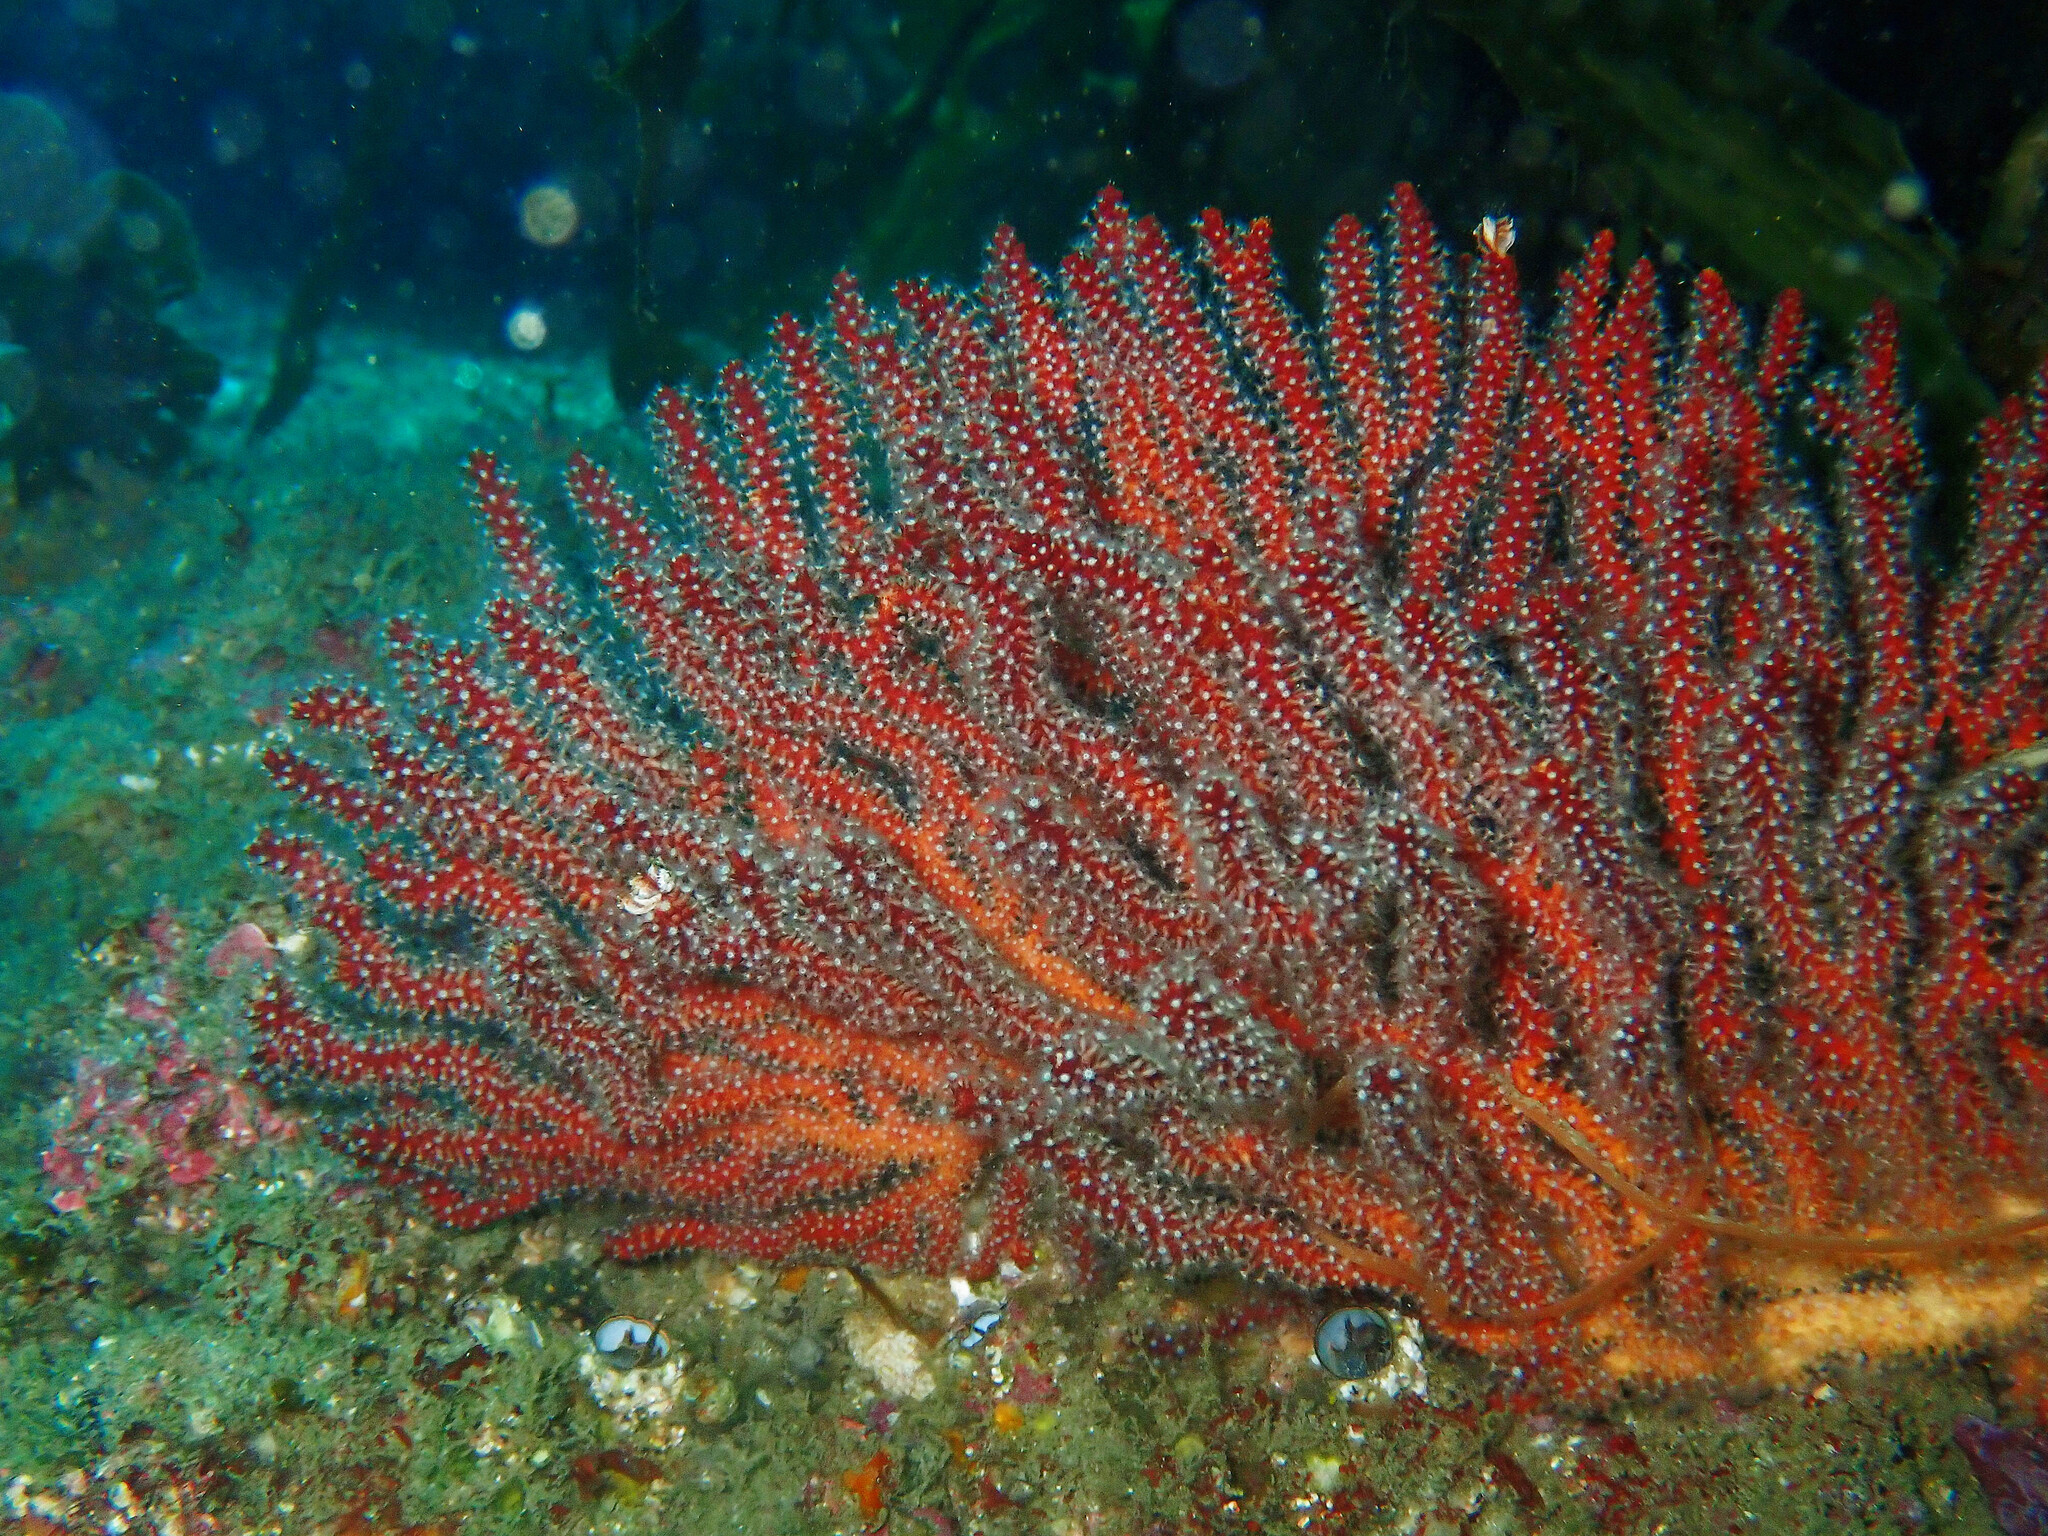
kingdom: Animalia
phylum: Cnidaria
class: Anthozoa
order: Malacalcyonacea
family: Plexauridae
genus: Muricea
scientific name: Muricea fruticosa
